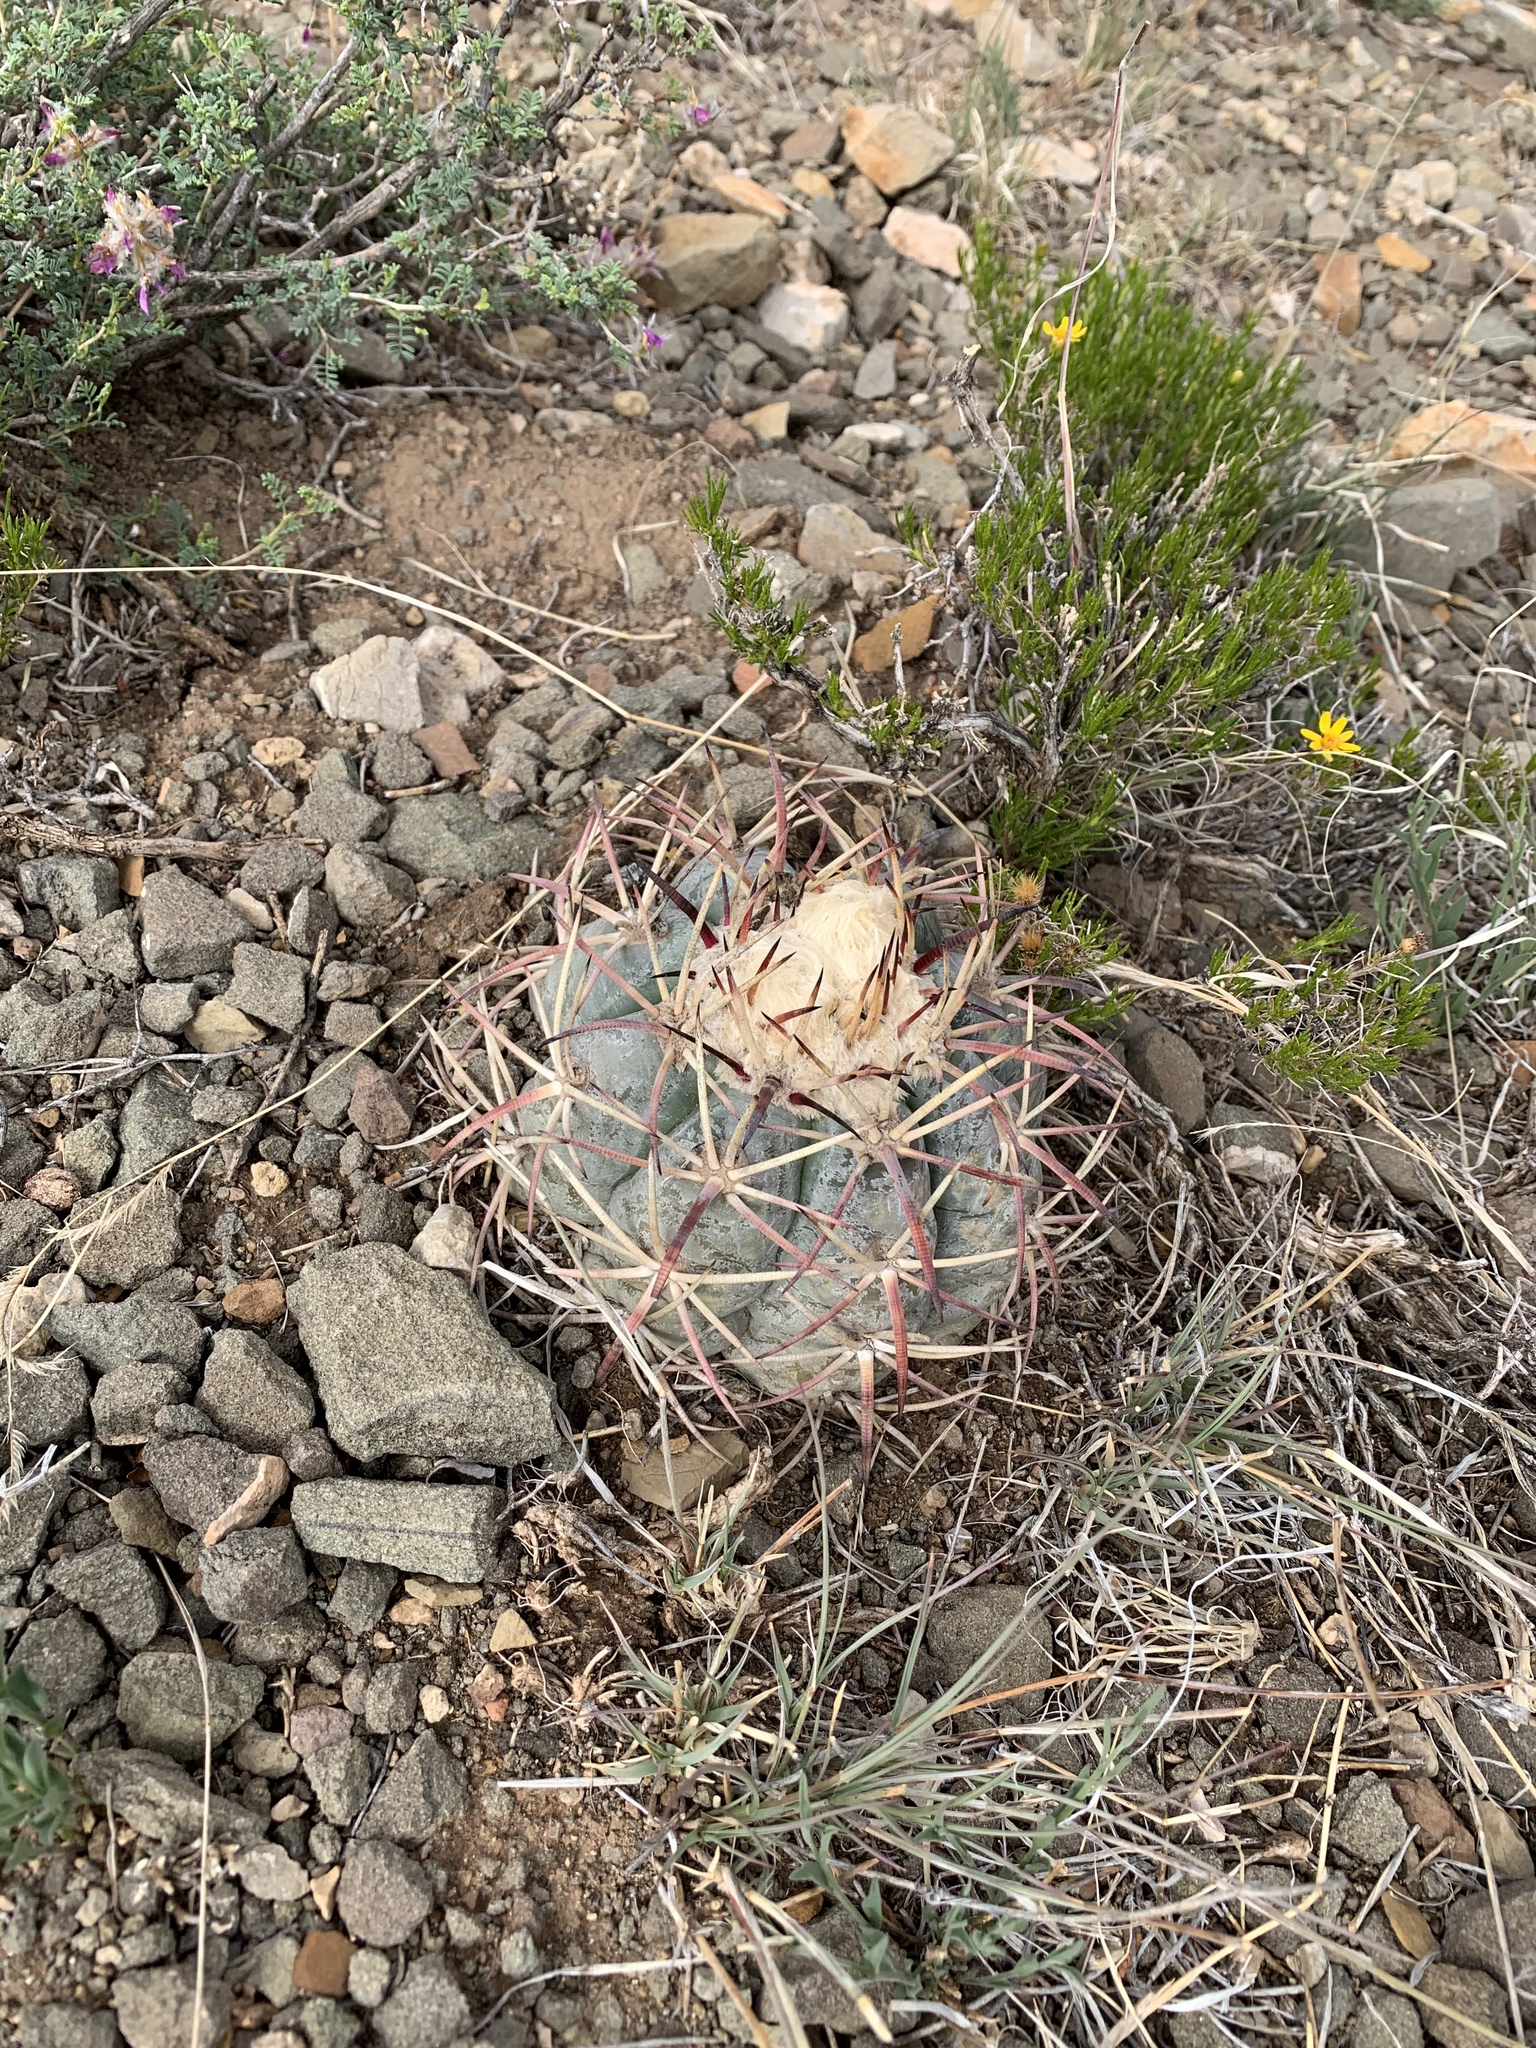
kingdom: Plantae
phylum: Tracheophyta
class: Magnoliopsida
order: Caryophyllales
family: Cactaceae
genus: Echinocactus
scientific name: Echinocactus horizonthalonius
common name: Devilshead
